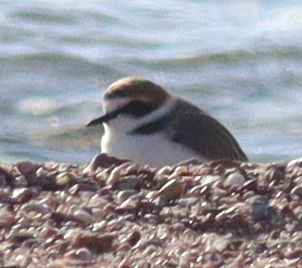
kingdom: Animalia
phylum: Chordata
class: Aves
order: Charadriiformes
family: Charadriidae
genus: Charadrius
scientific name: Charadrius alexandrinus
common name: Kentish plover
